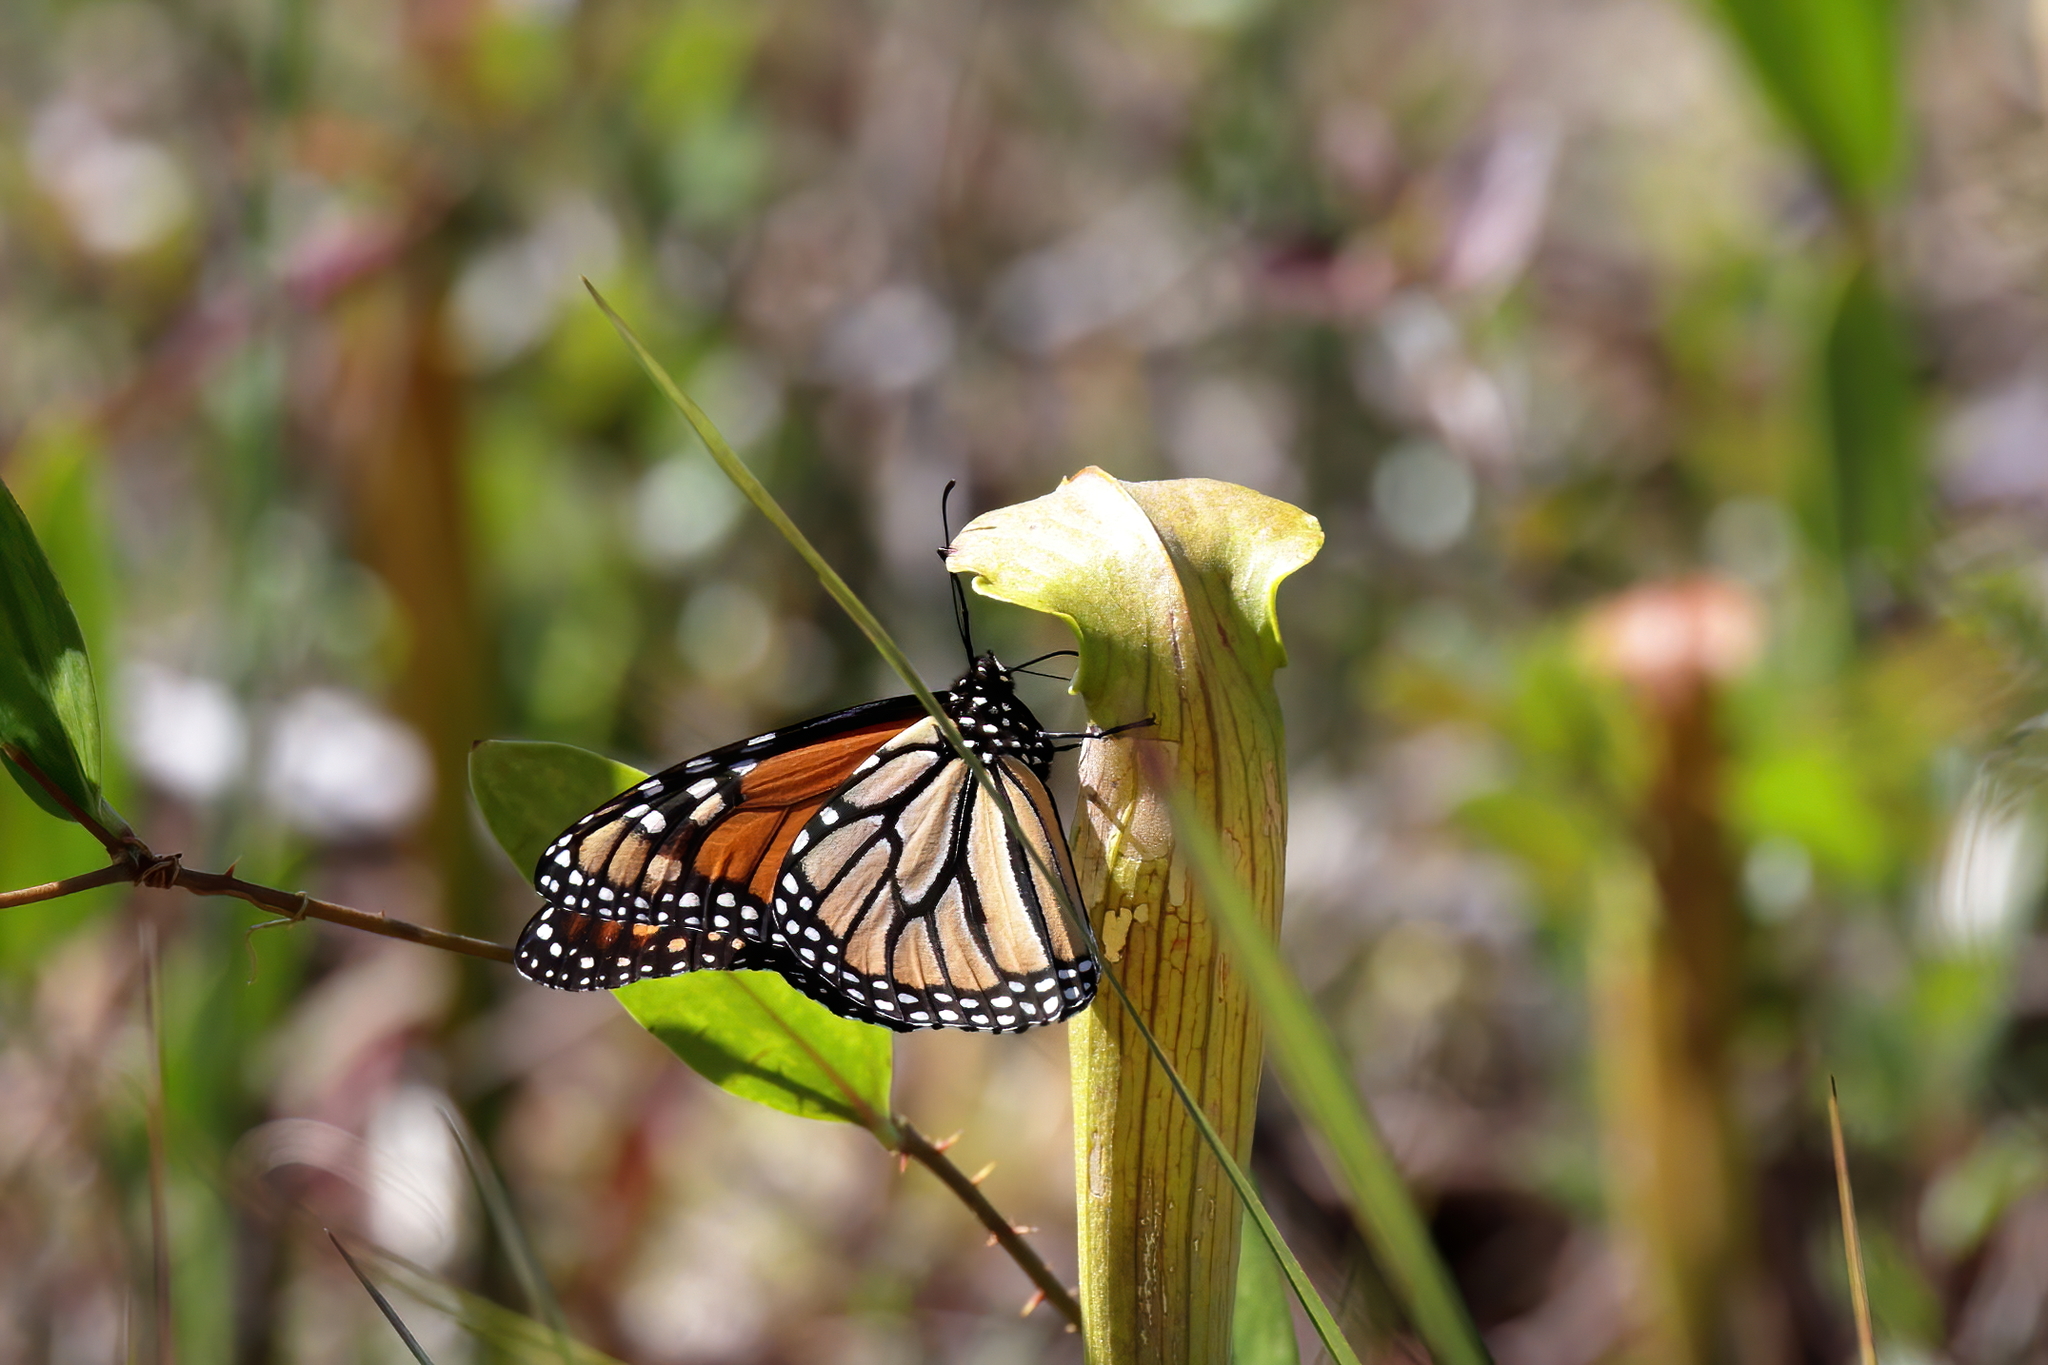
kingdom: Animalia
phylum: Arthropoda
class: Insecta
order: Lepidoptera
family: Nymphalidae
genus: Danaus
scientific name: Danaus plexippus
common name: Monarch
